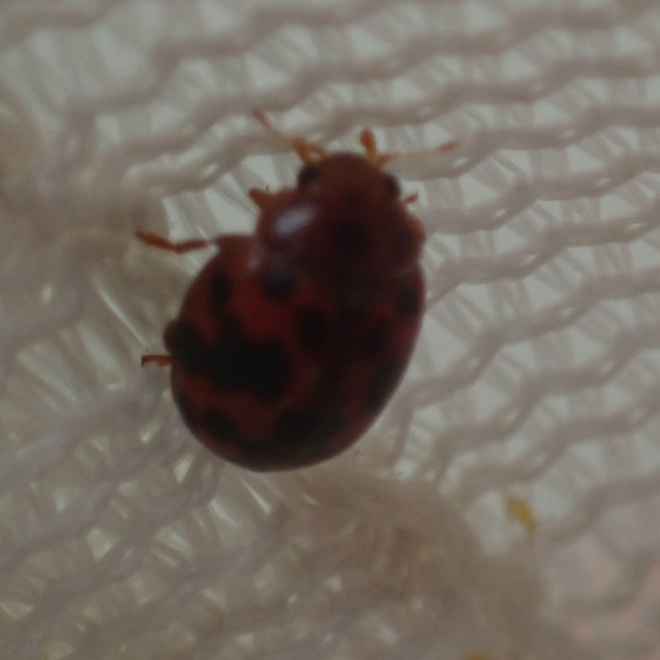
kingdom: Animalia
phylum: Arthropoda
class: Insecta
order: Coleoptera
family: Coccinellidae
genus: Subcoccinella
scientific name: Subcoccinella vigintiquatuorpunctata
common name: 24-spot ladybird
